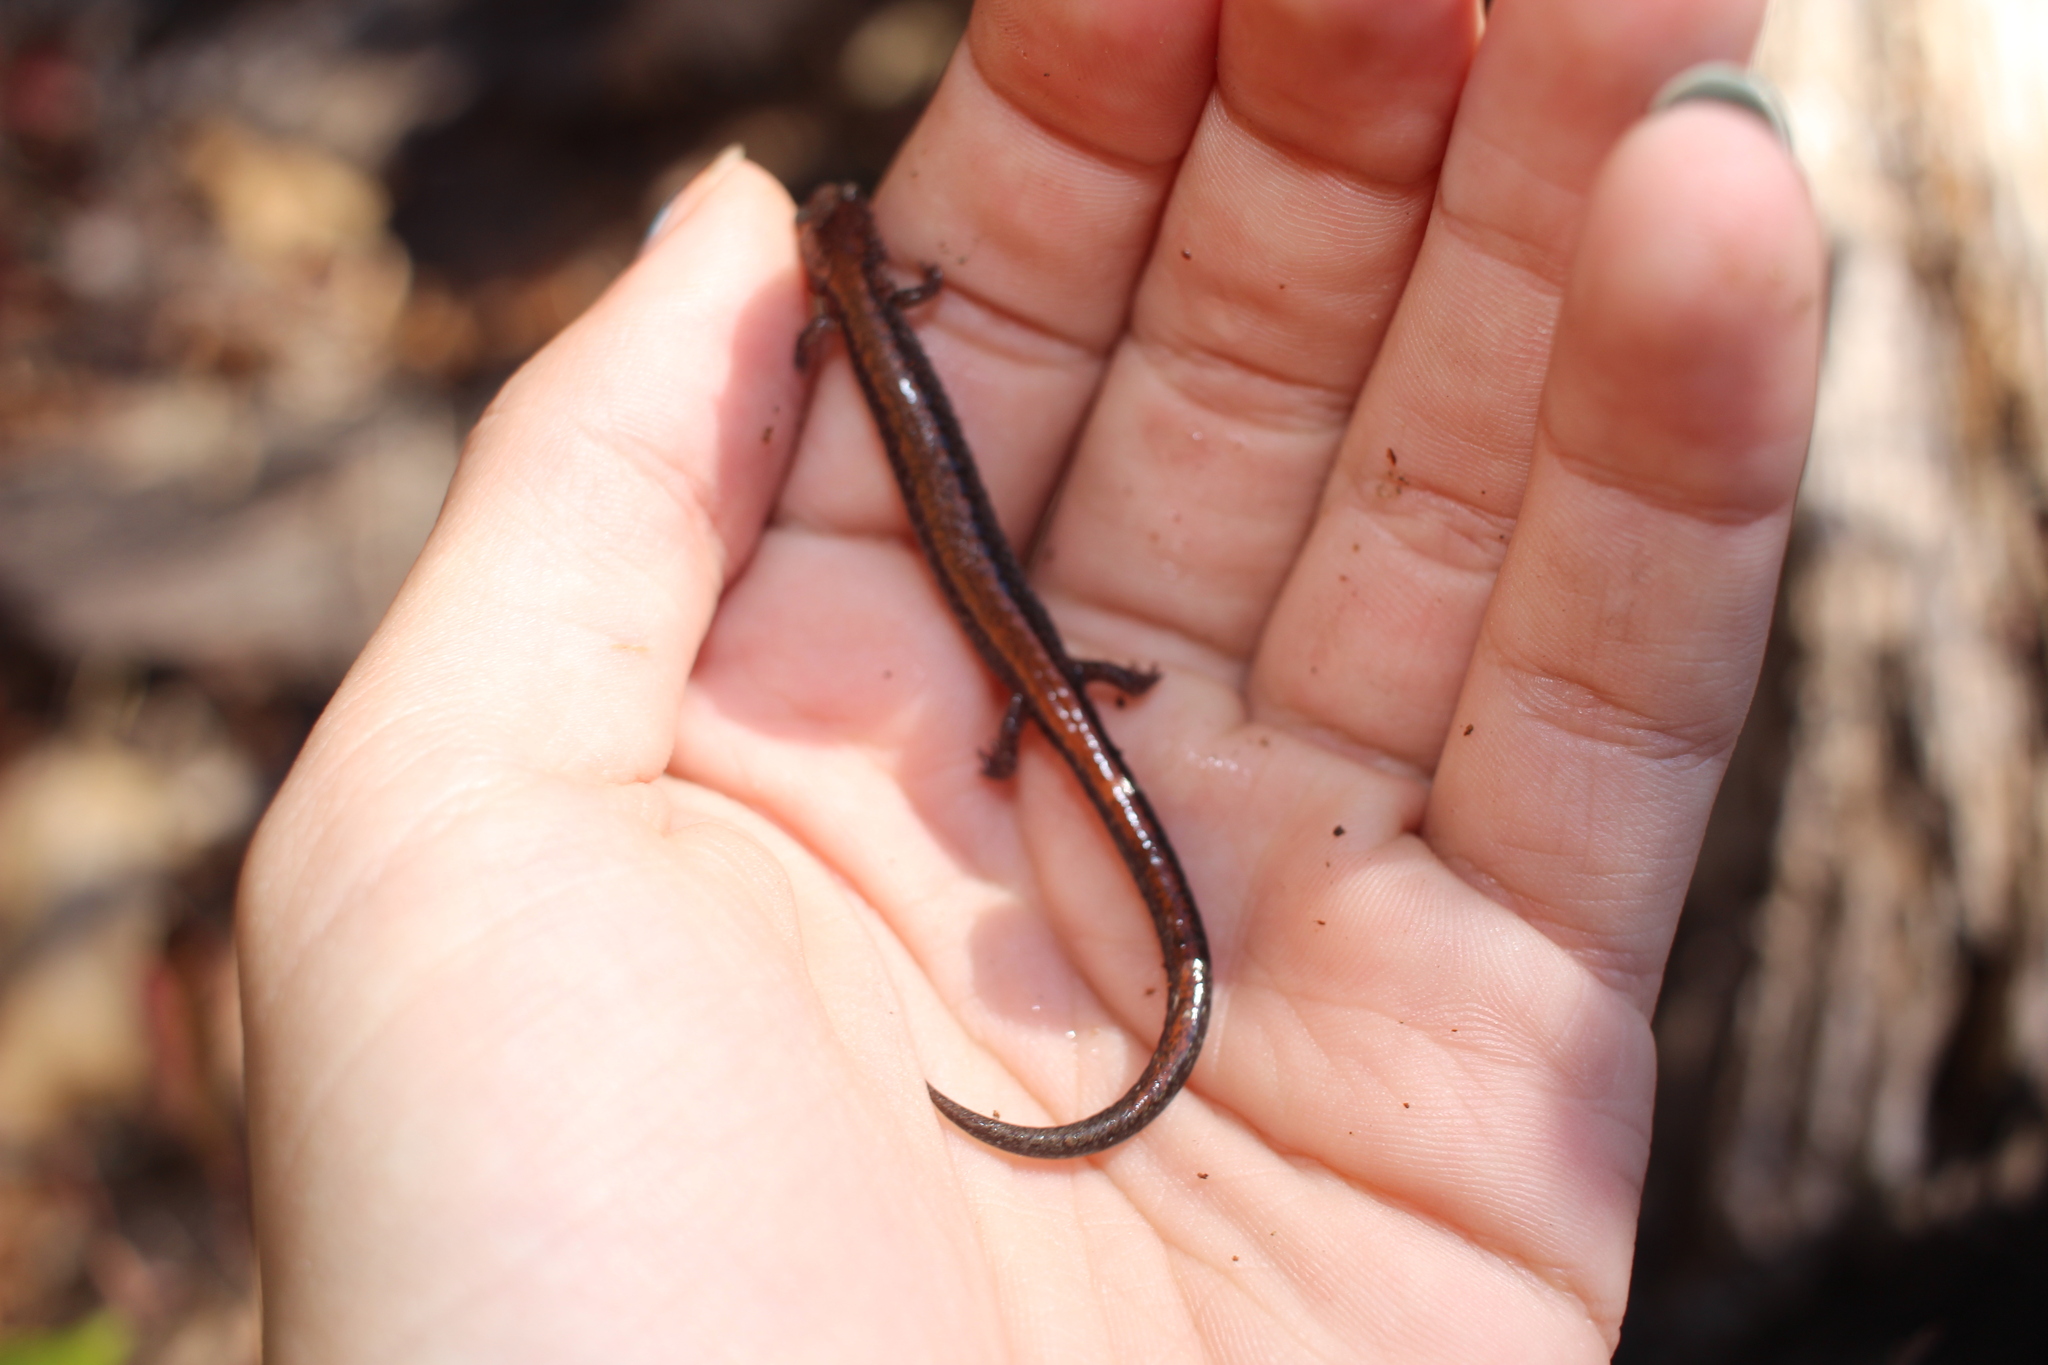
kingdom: Animalia
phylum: Chordata
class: Amphibia
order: Caudata
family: Plethodontidae
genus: Plethodon
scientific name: Plethodon cinereus
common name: Redback salamander
